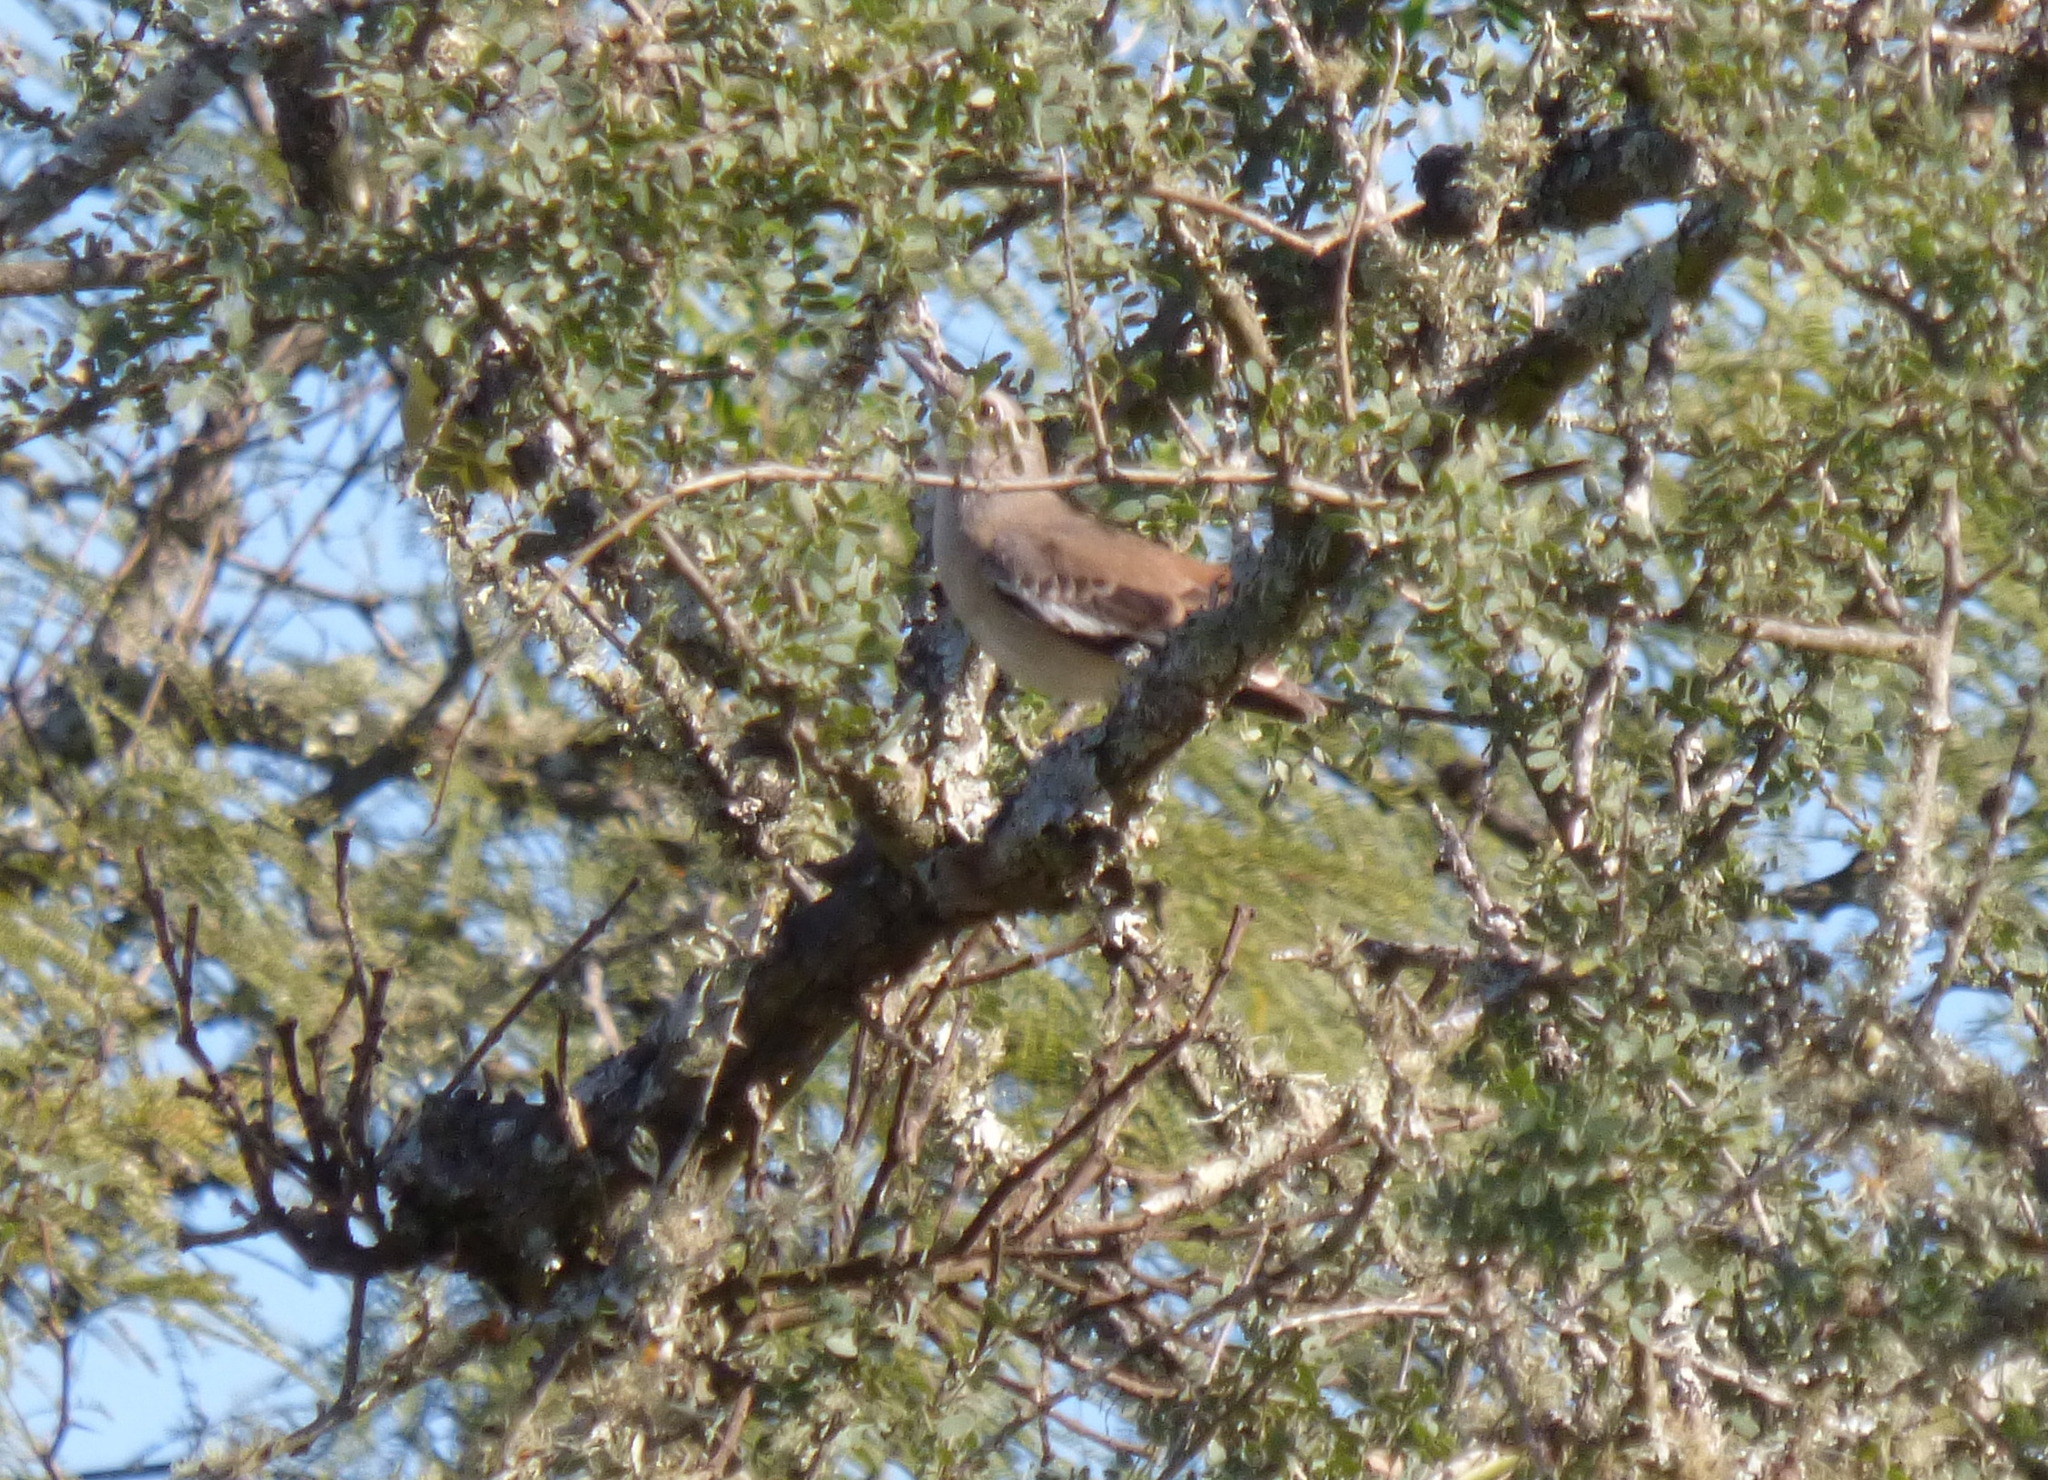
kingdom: Animalia
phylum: Chordata
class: Aves
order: Passeriformes
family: Mimidae
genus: Mimus
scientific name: Mimus triurus
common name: White-banded mockingbird
